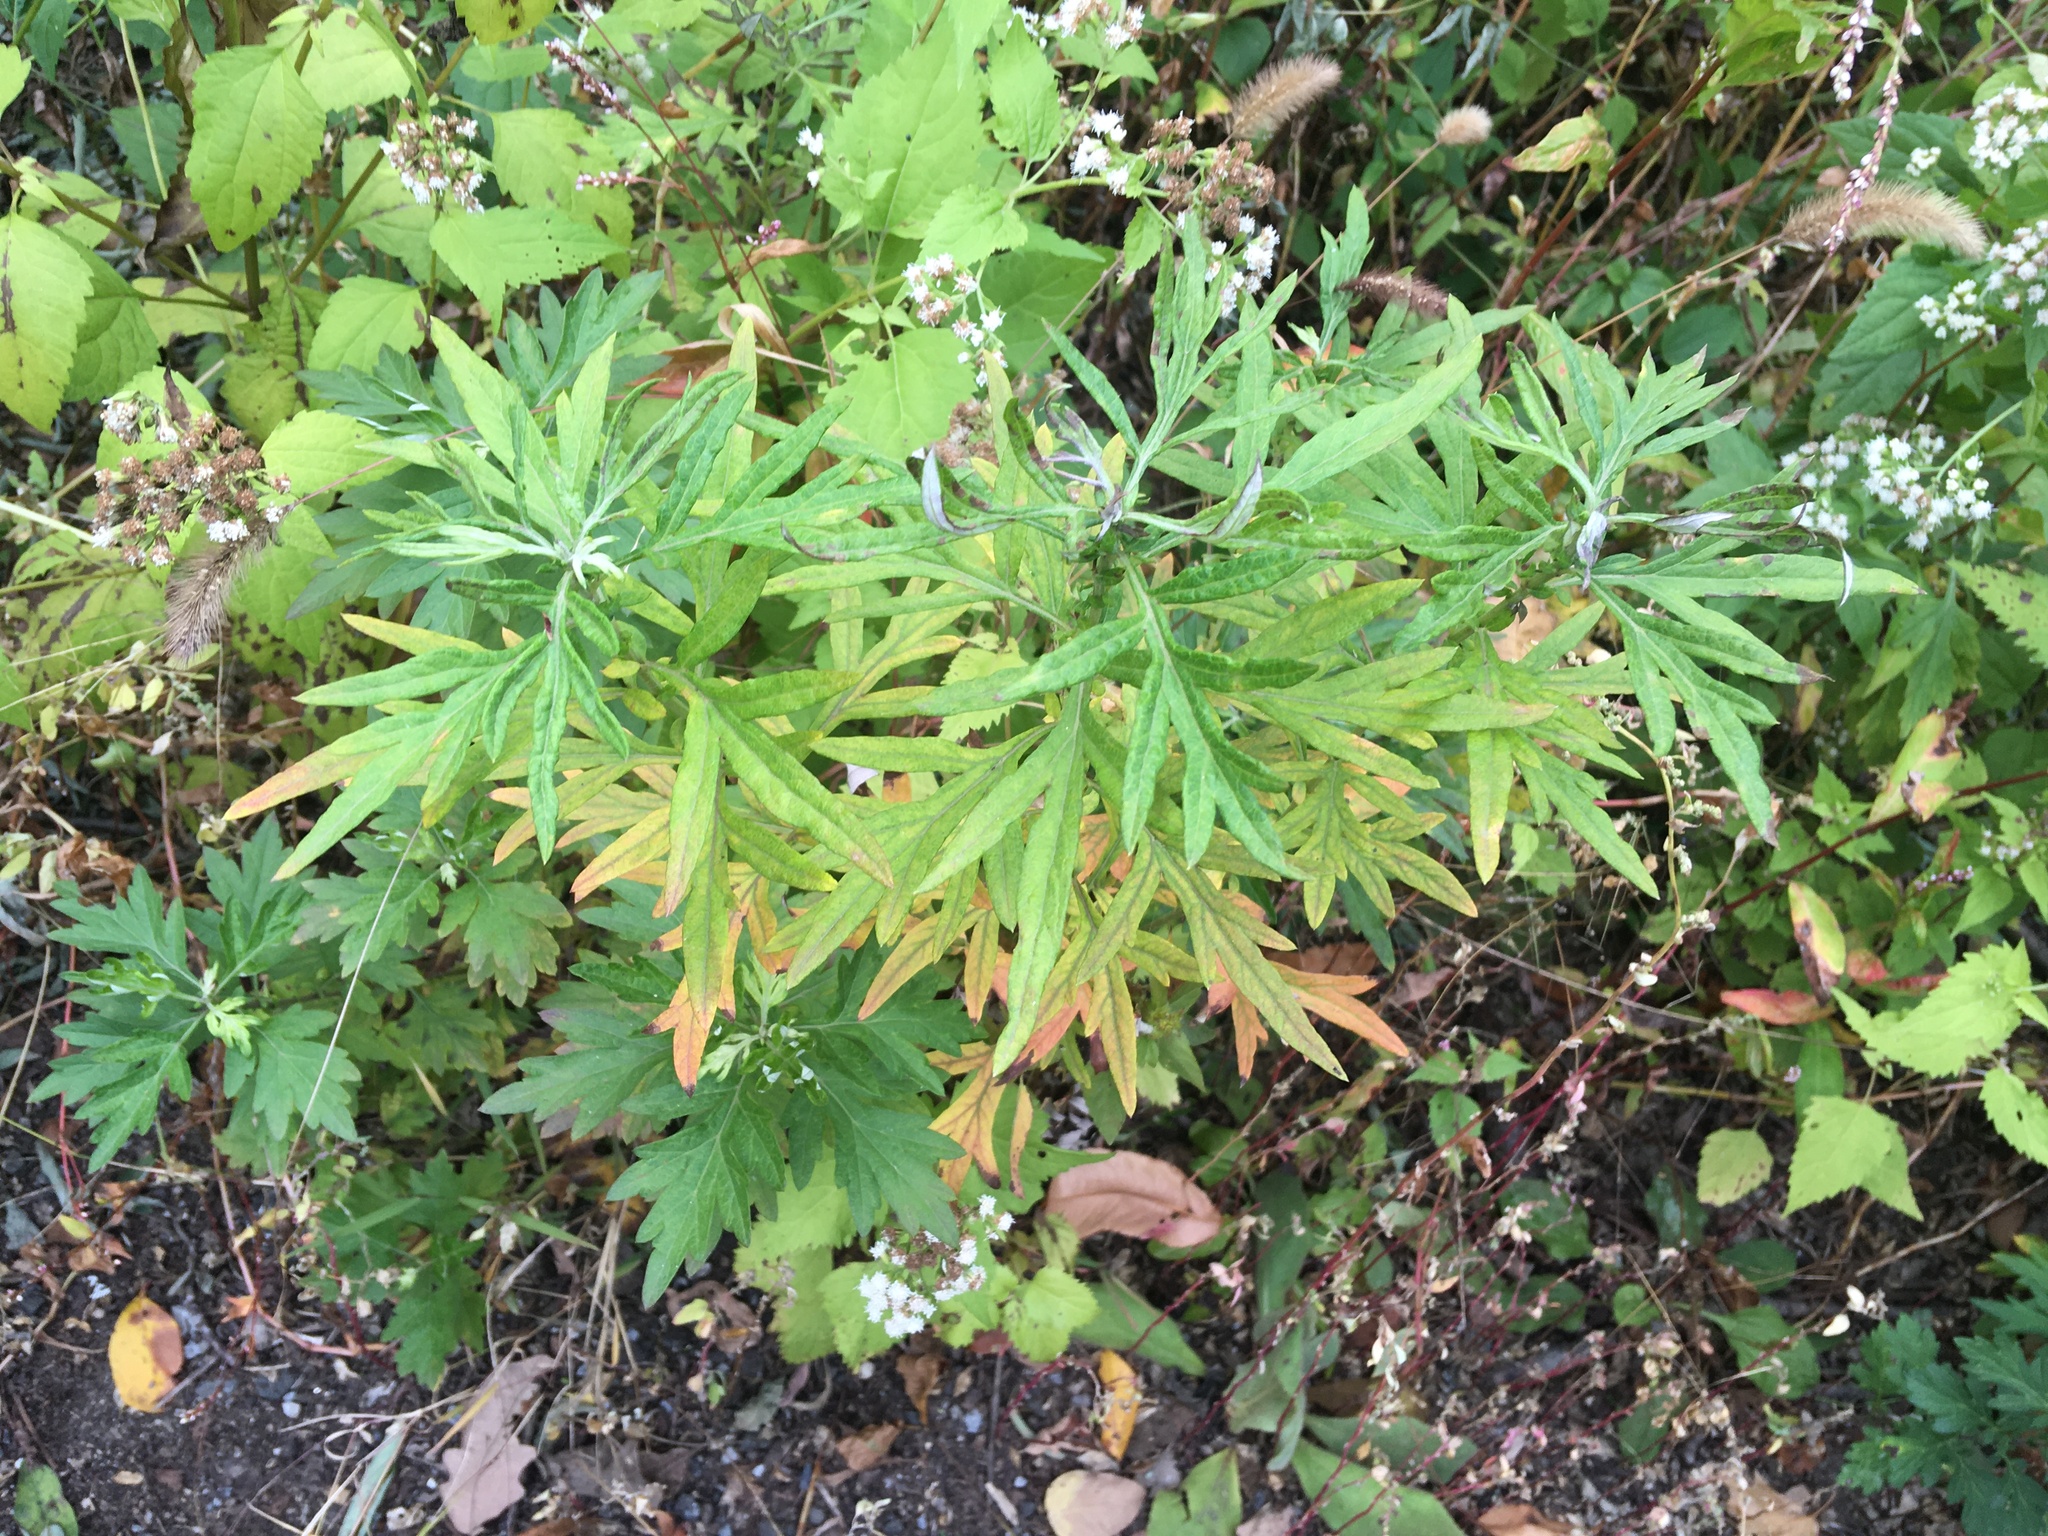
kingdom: Plantae
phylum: Tracheophyta
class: Magnoliopsida
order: Asterales
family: Asteraceae
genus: Artemisia
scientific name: Artemisia vulgaris
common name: Mugwort
